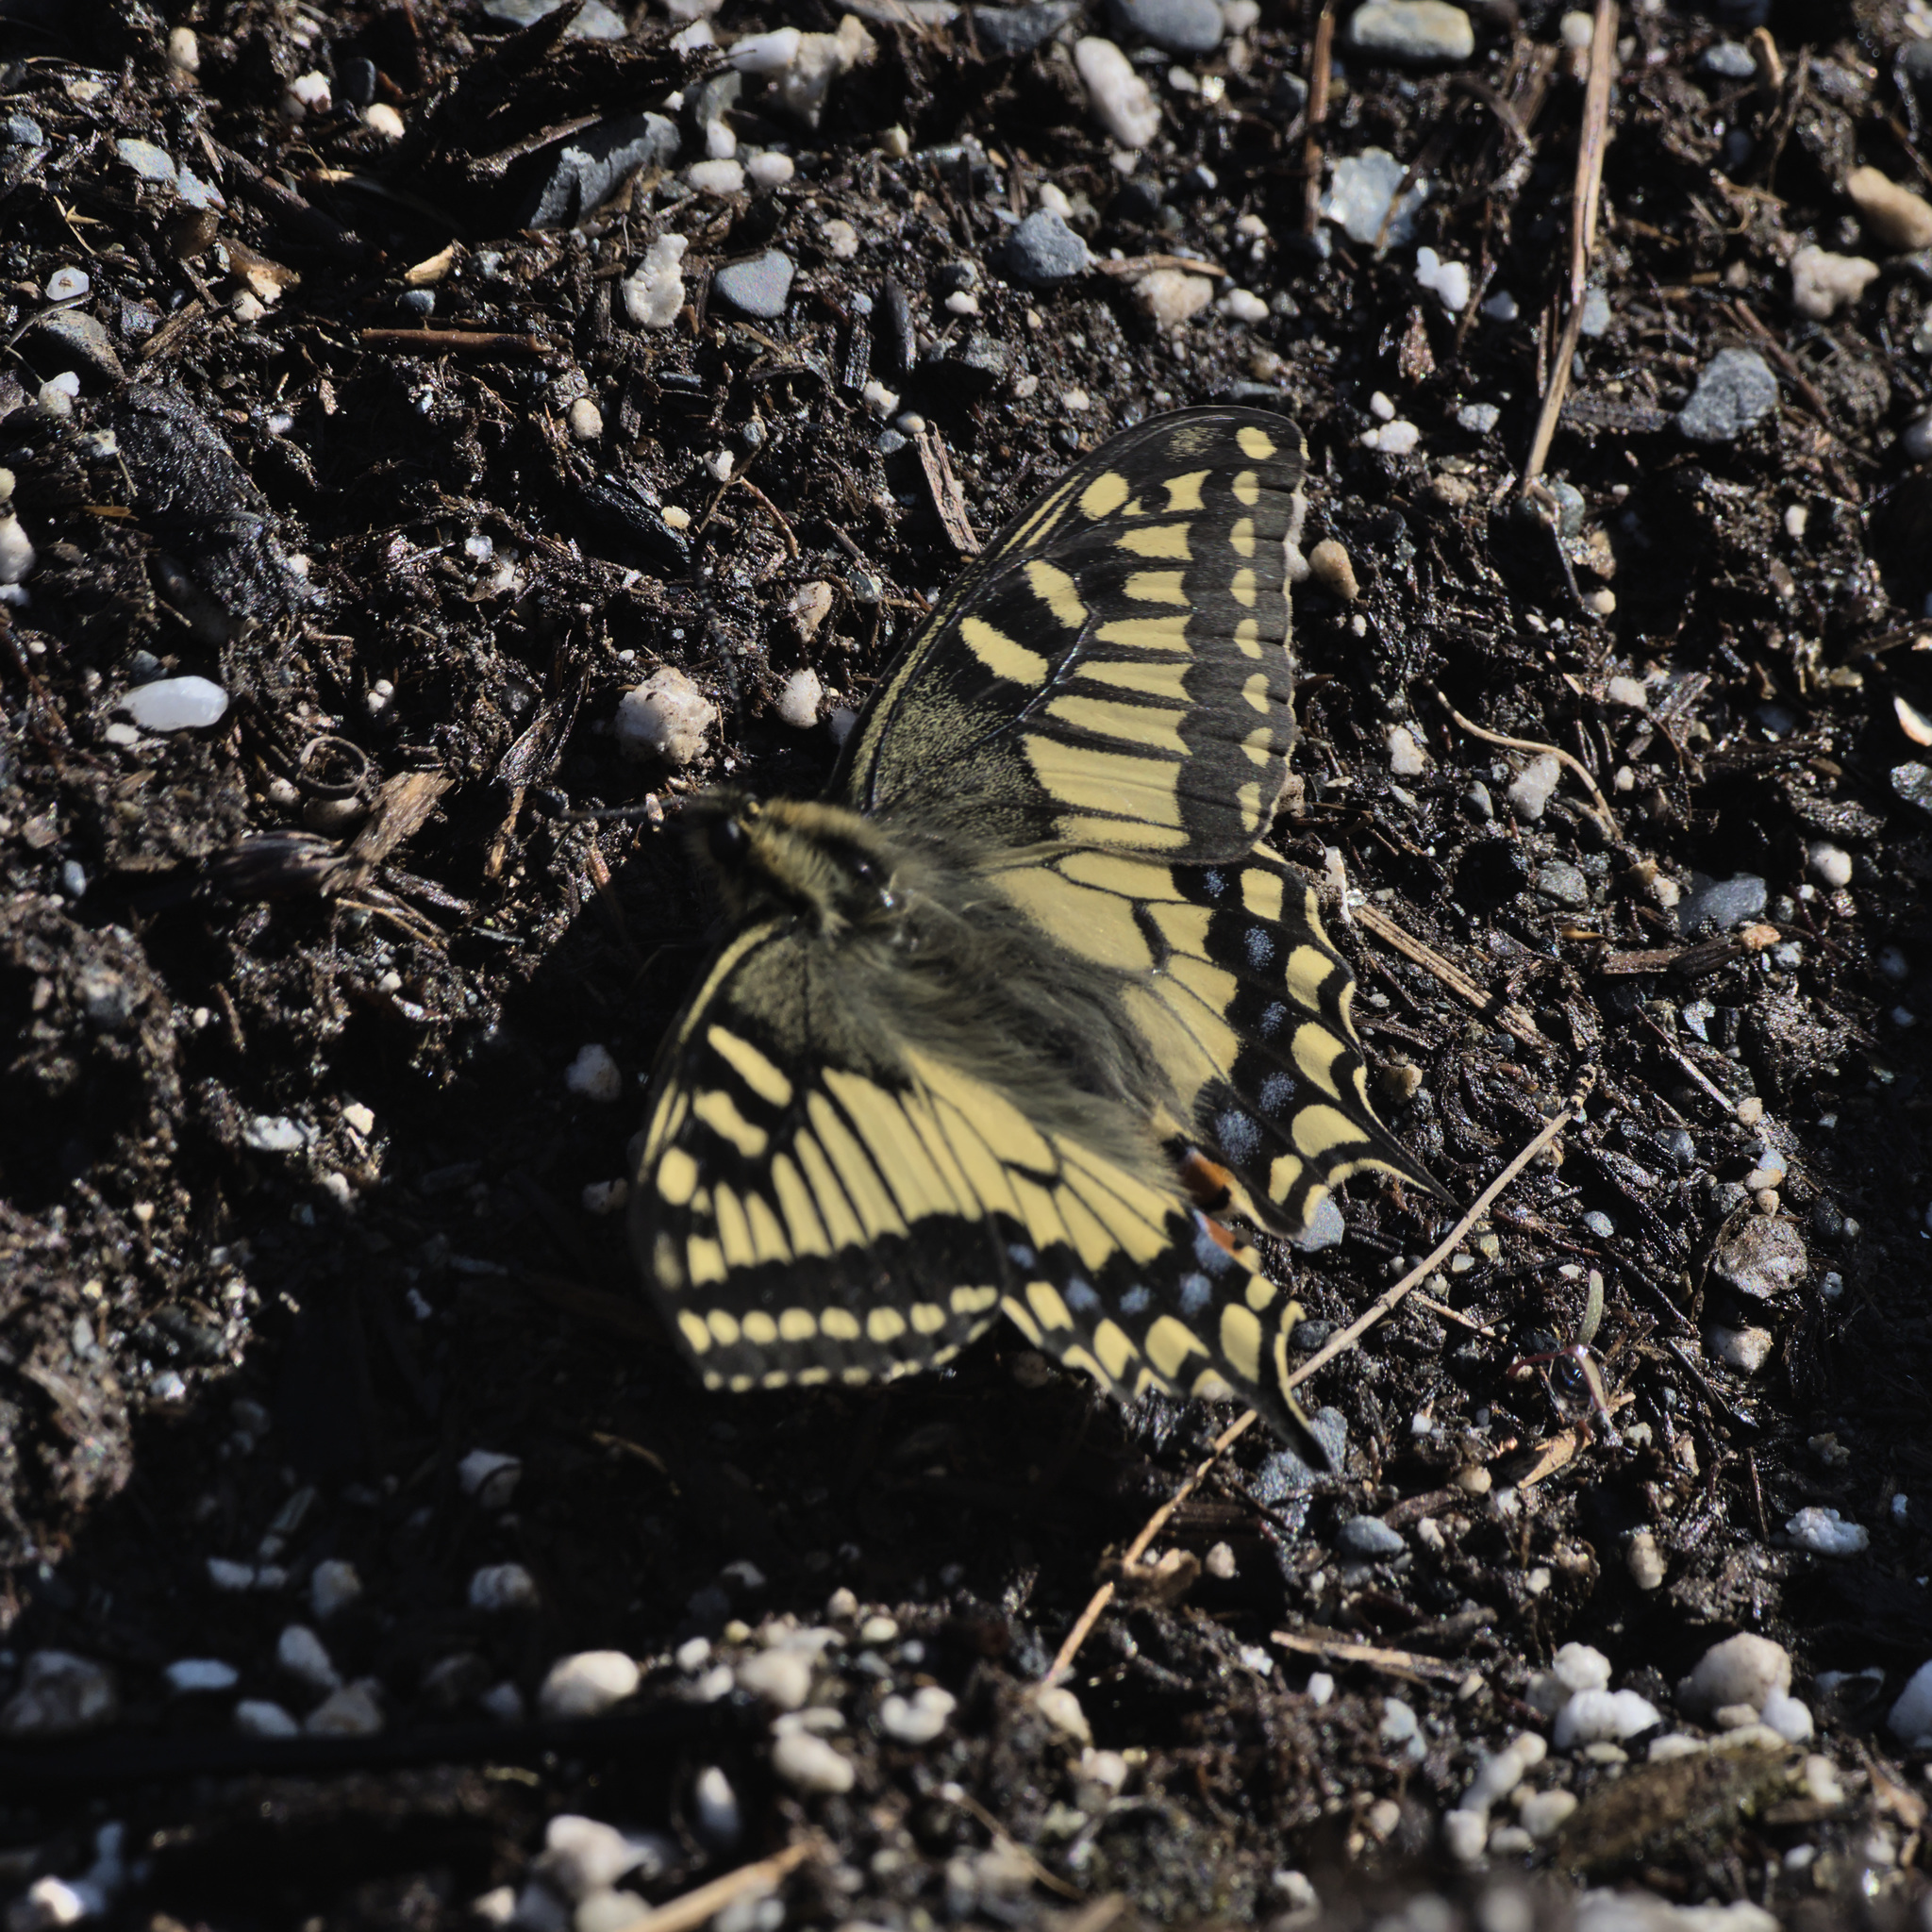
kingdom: Animalia
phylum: Arthropoda
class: Insecta
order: Lepidoptera
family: Papilionidae
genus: Papilio
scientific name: Papilio machaon
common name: Swallowtail
